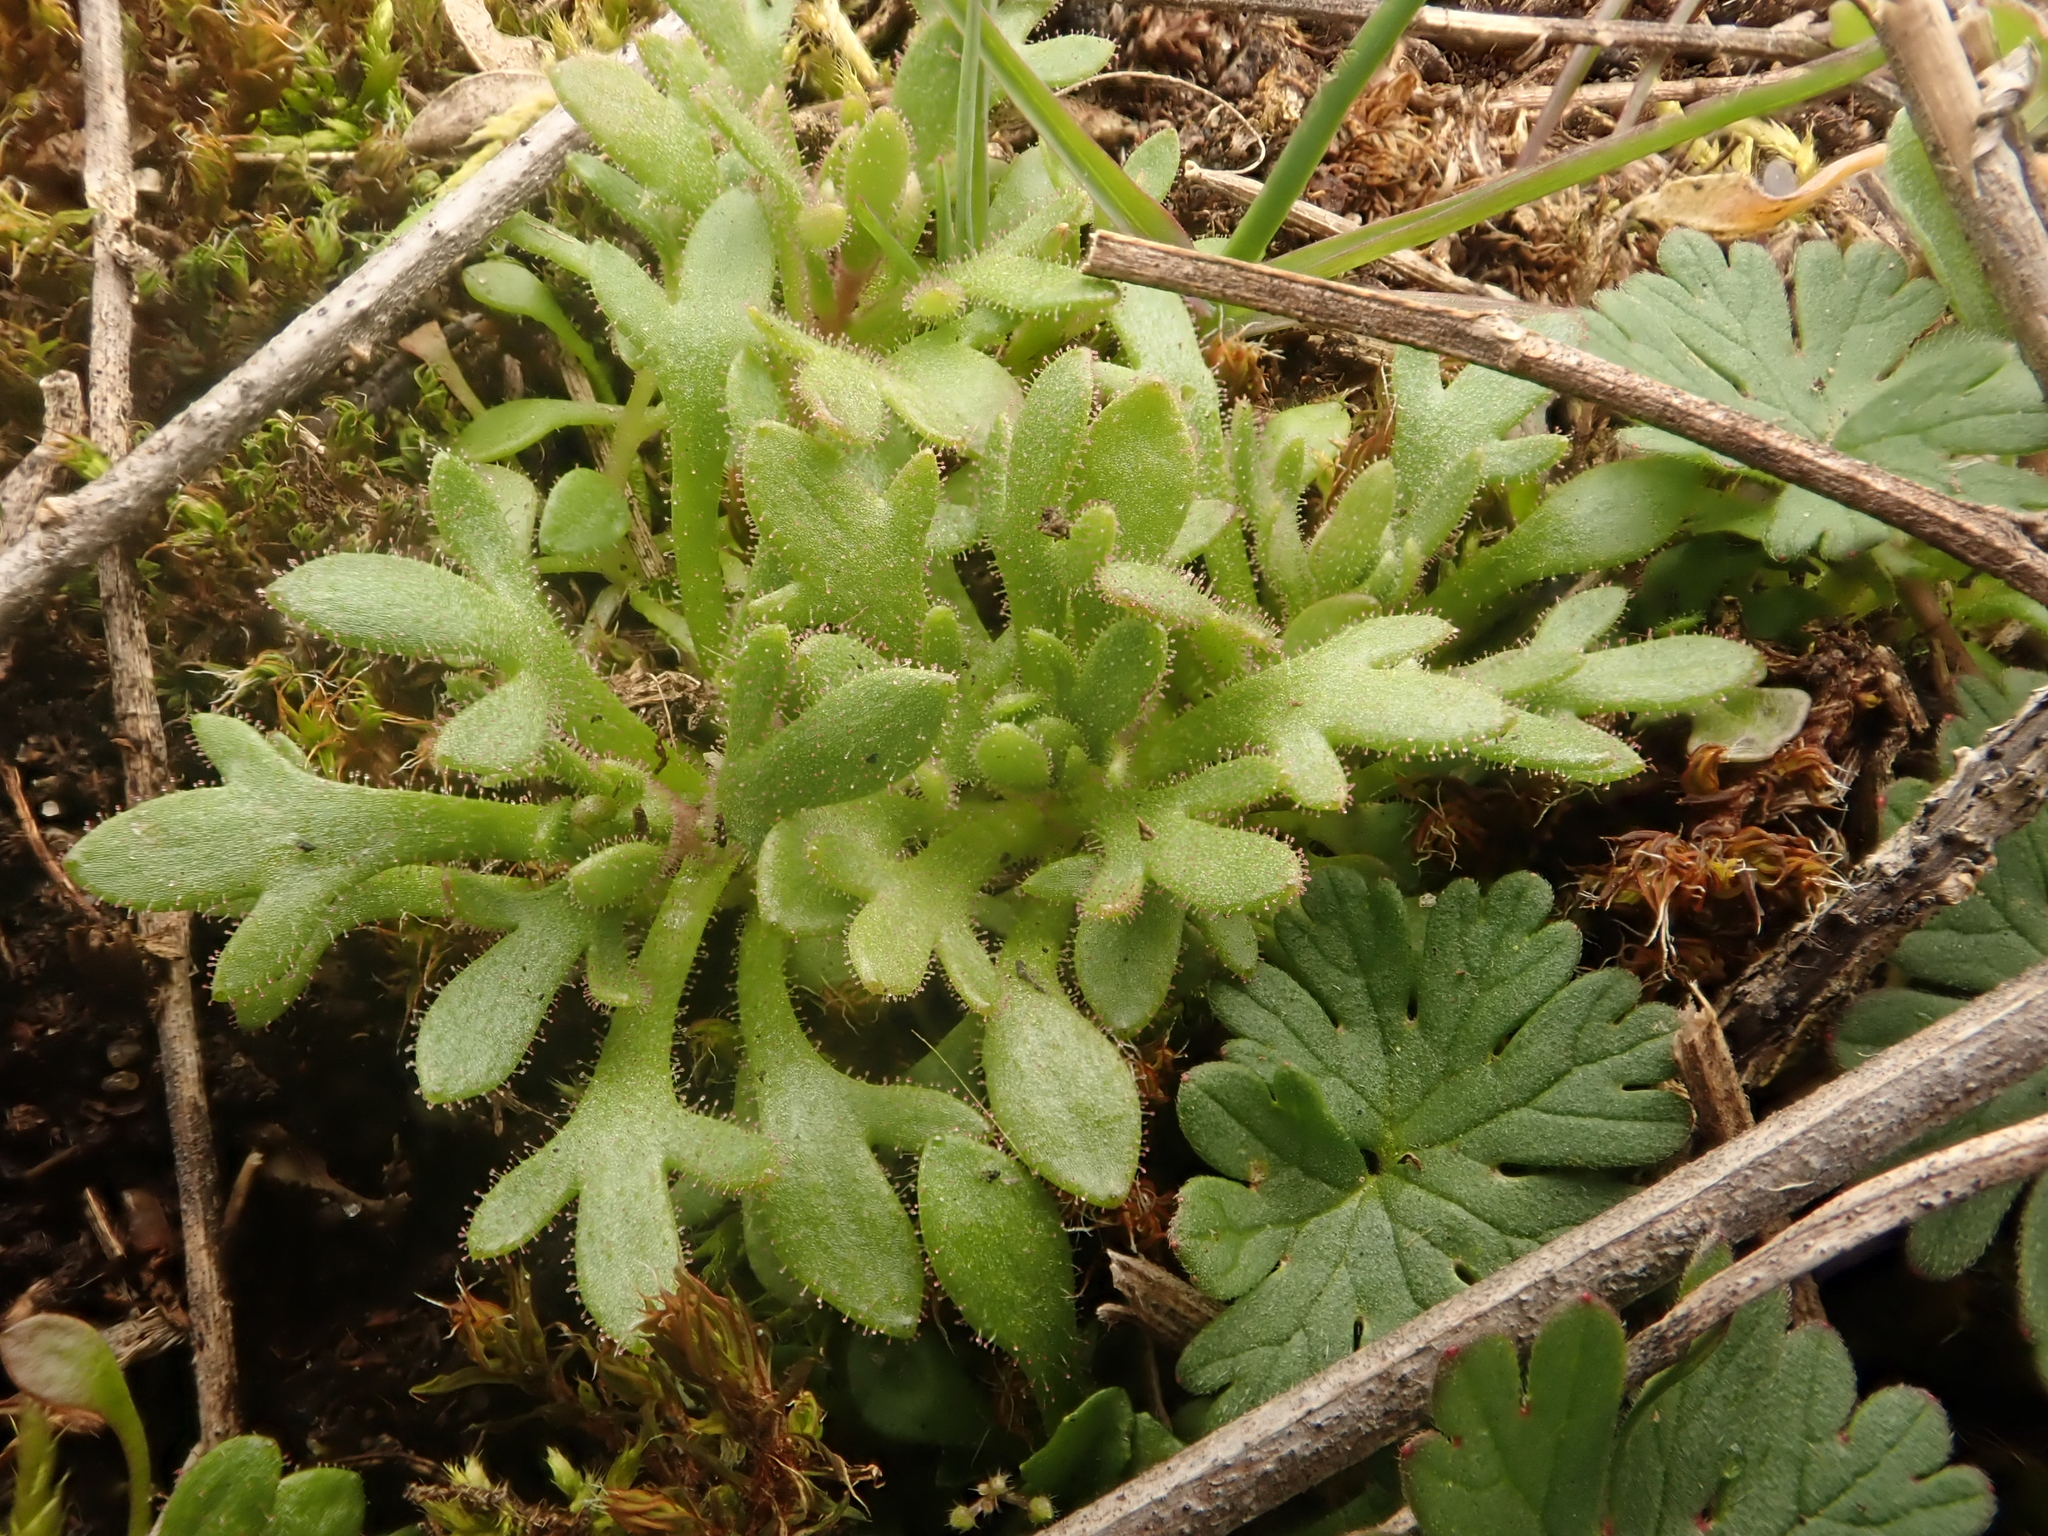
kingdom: Plantae
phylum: Tracheophyta
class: Magnoliopsida
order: Saxifragales
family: Saxifragaceae
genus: Saxifraga
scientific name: Saxifraga tridactylites
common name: Rue-leaved saxifrage
